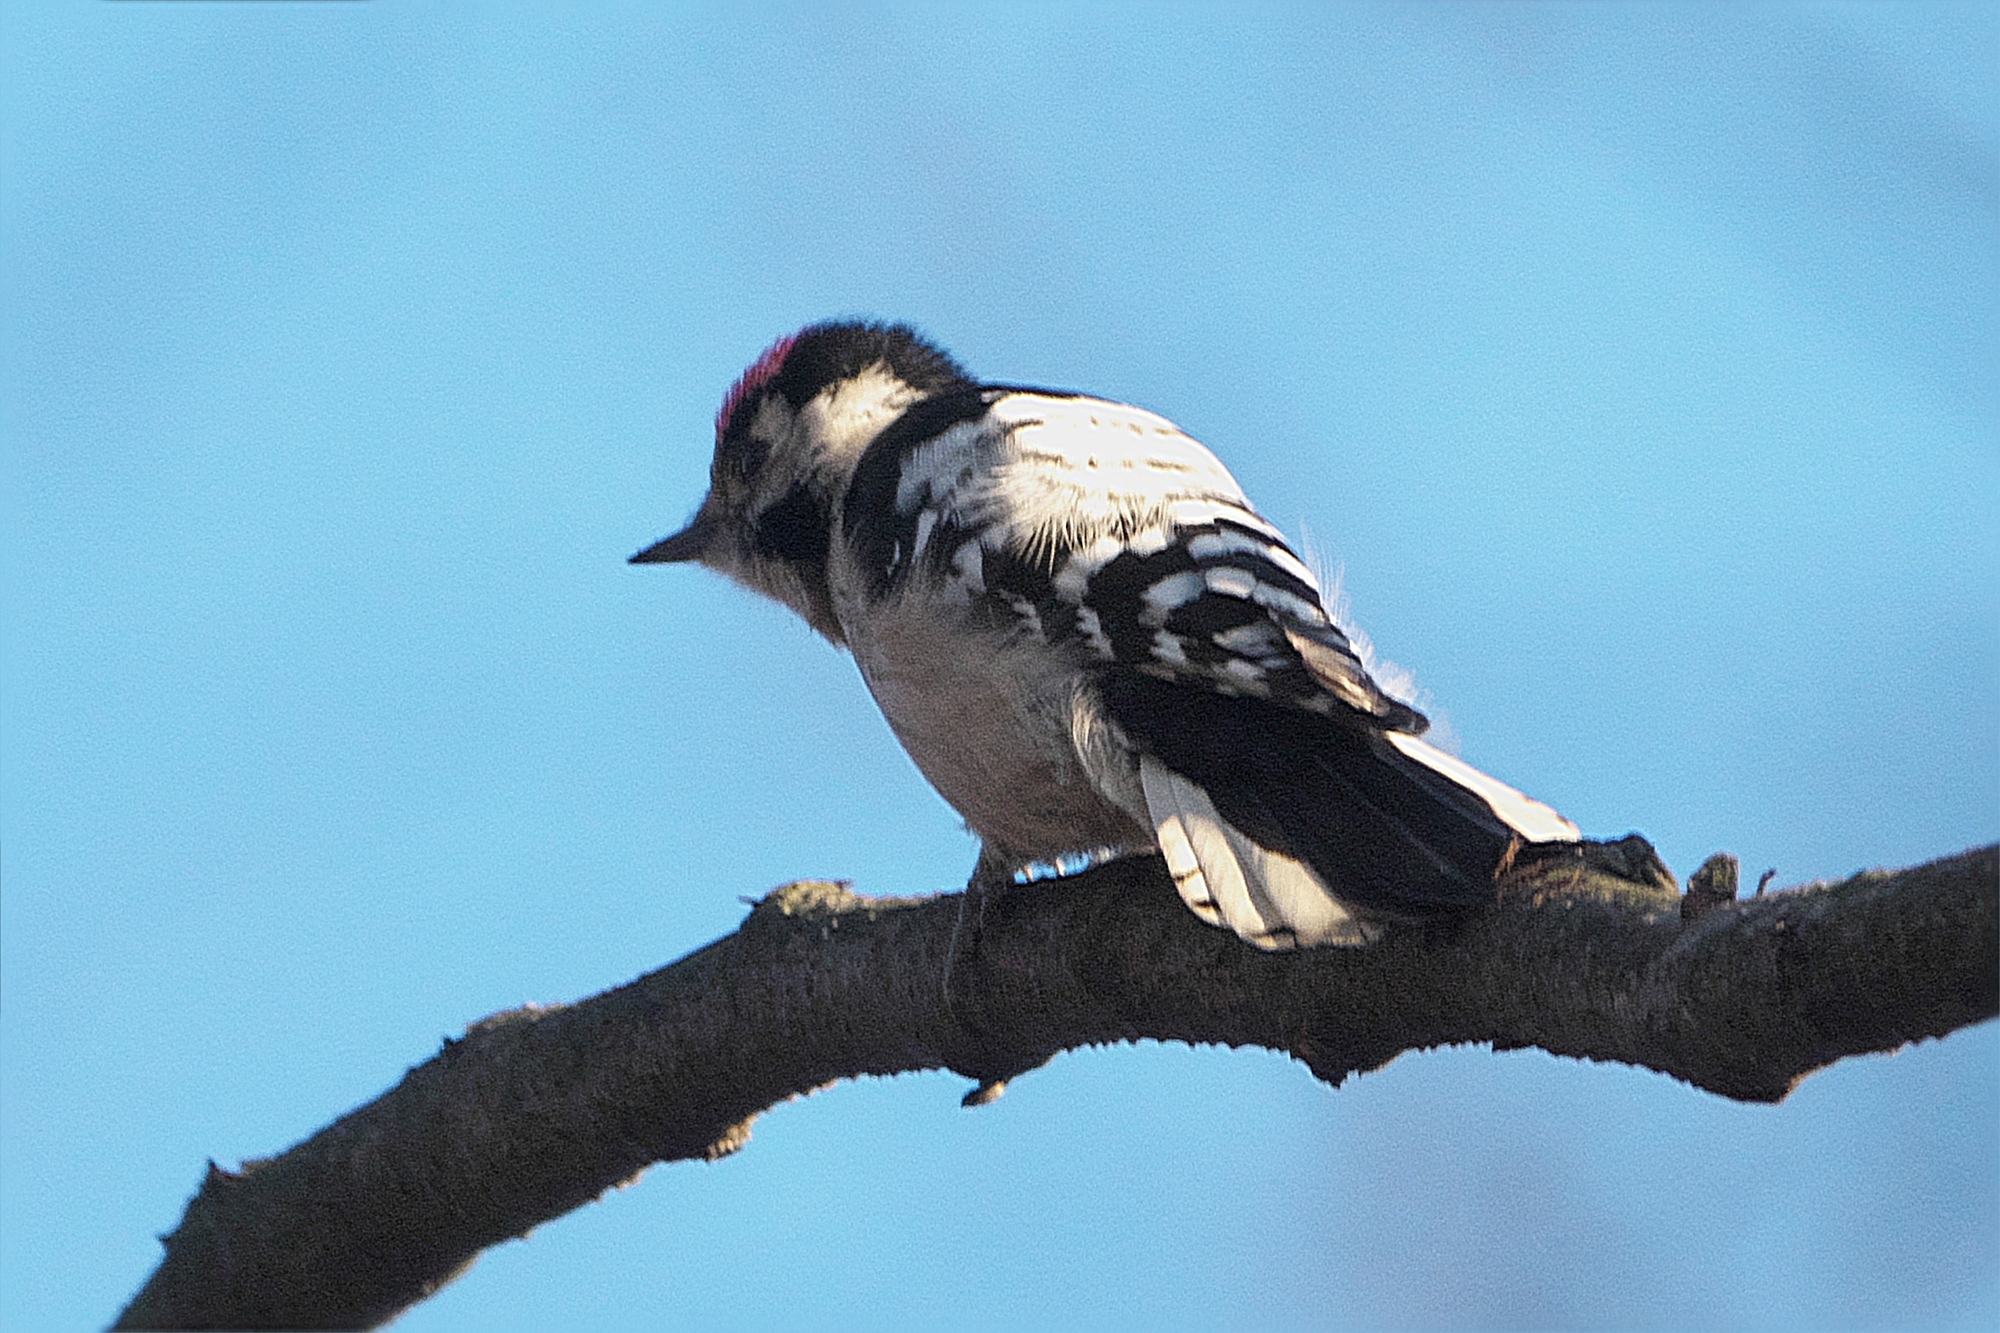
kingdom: Animalia
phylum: Chordata
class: Aves
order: Piciformes
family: Picidae
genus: Dryobates
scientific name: Dryobates minor
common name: Lesser spotted woodpecker
